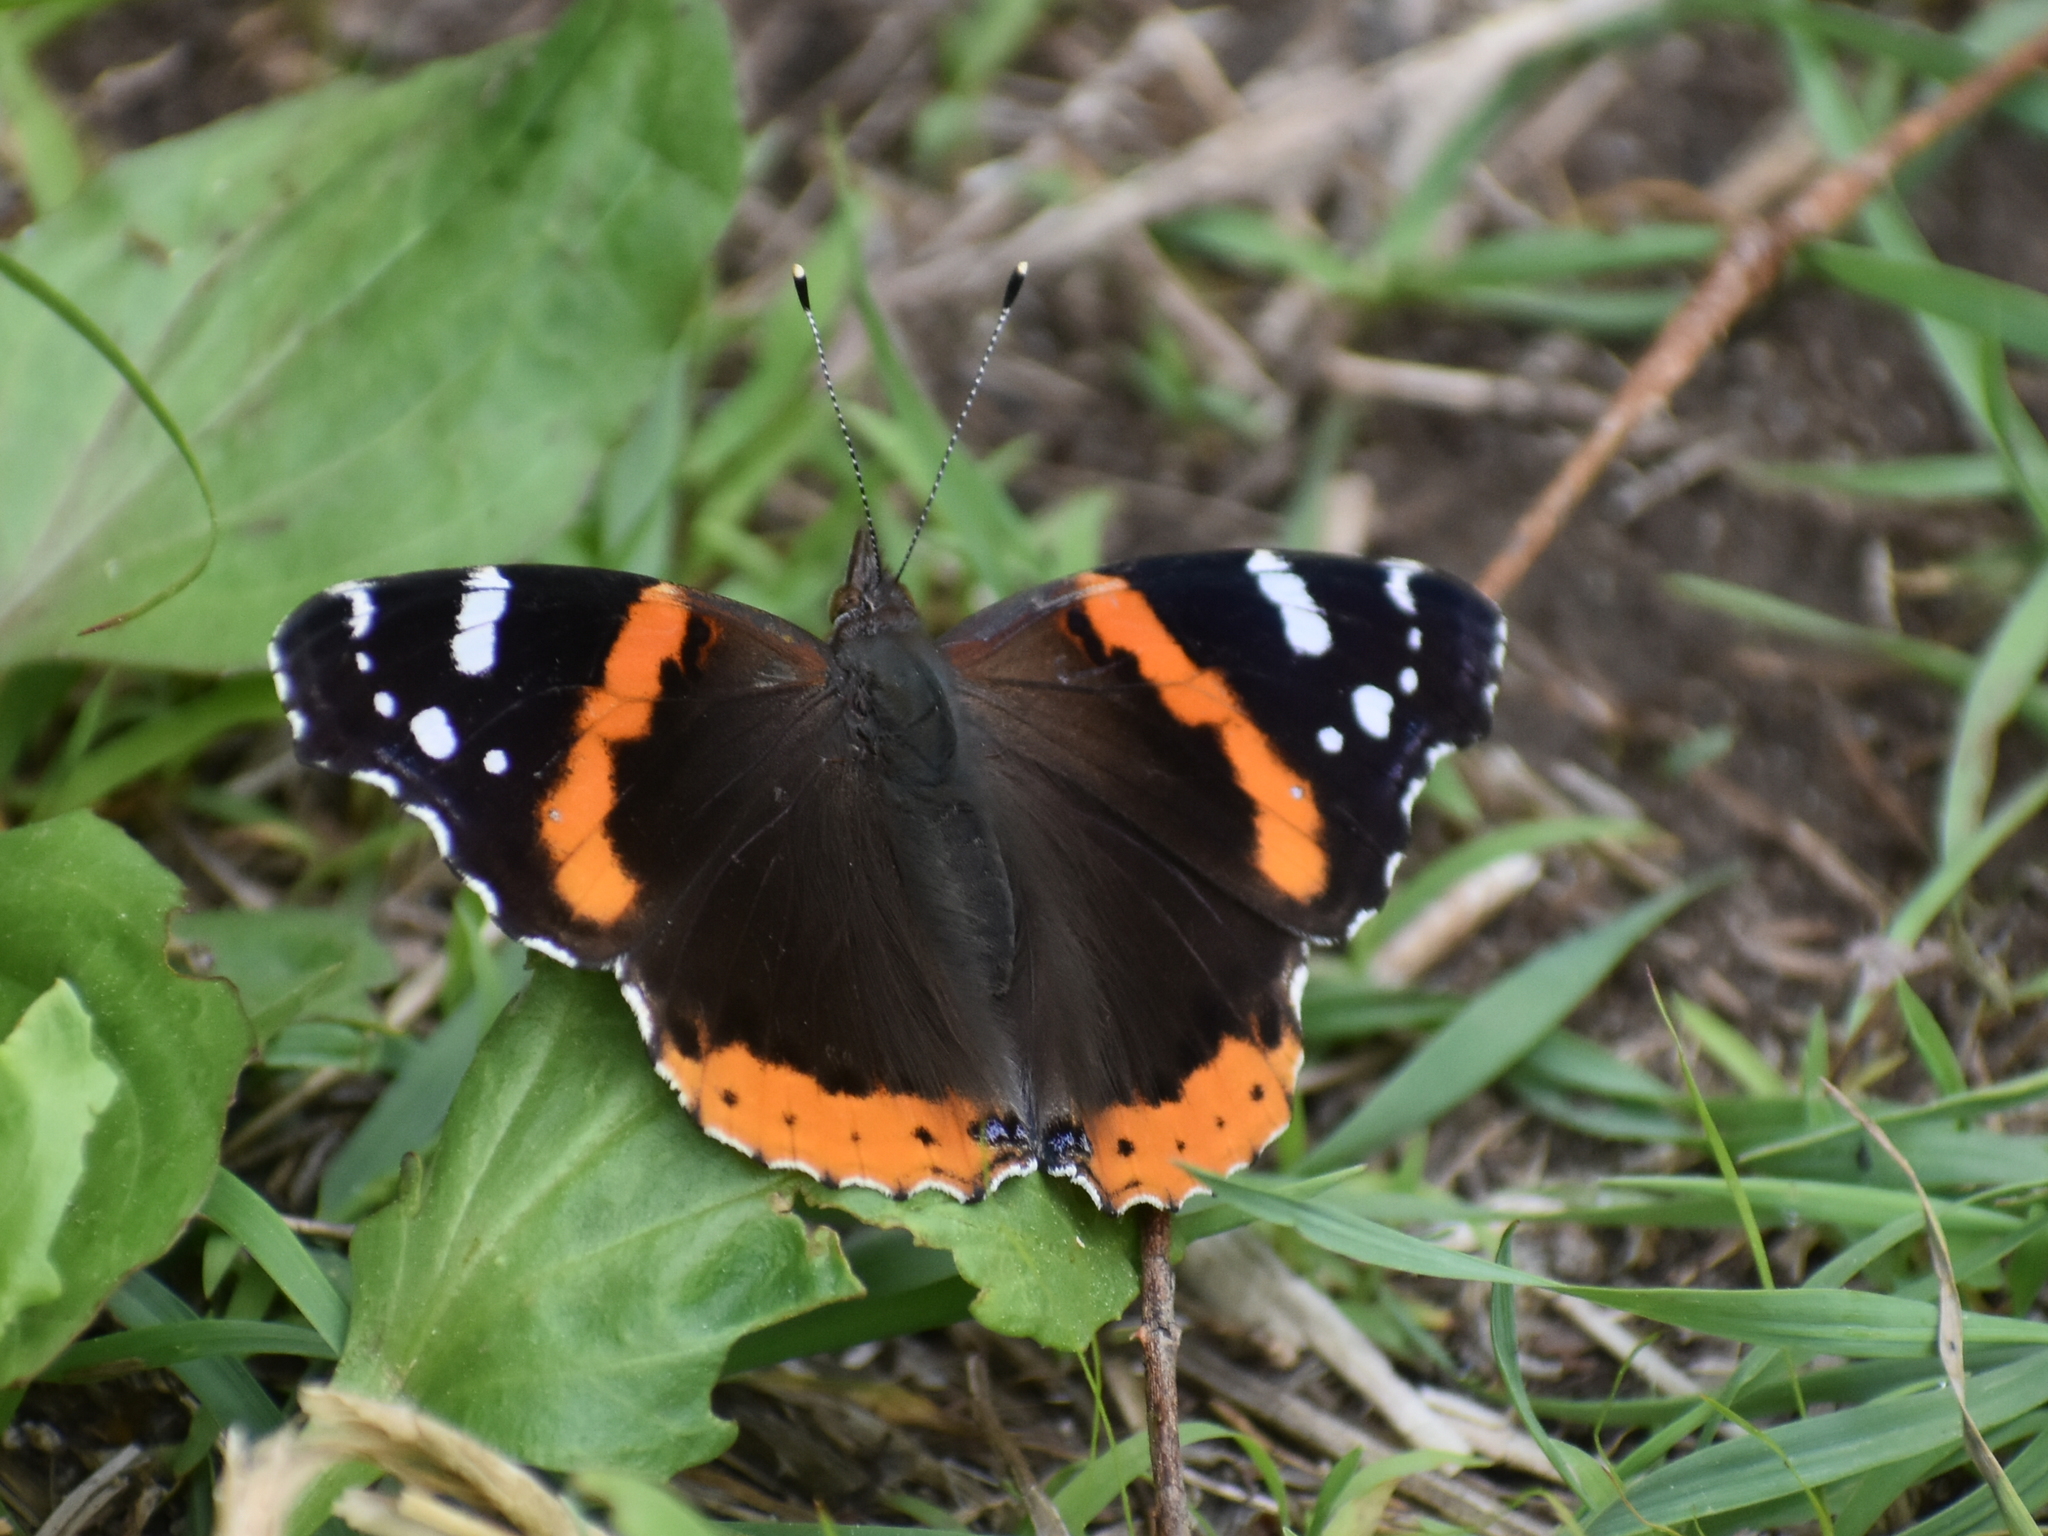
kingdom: Animalia
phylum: Arthropoda
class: Insecta
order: Lepidoptera
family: Nymphalidae
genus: Vanessa
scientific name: Vanessa atalanta
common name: Red admiral
